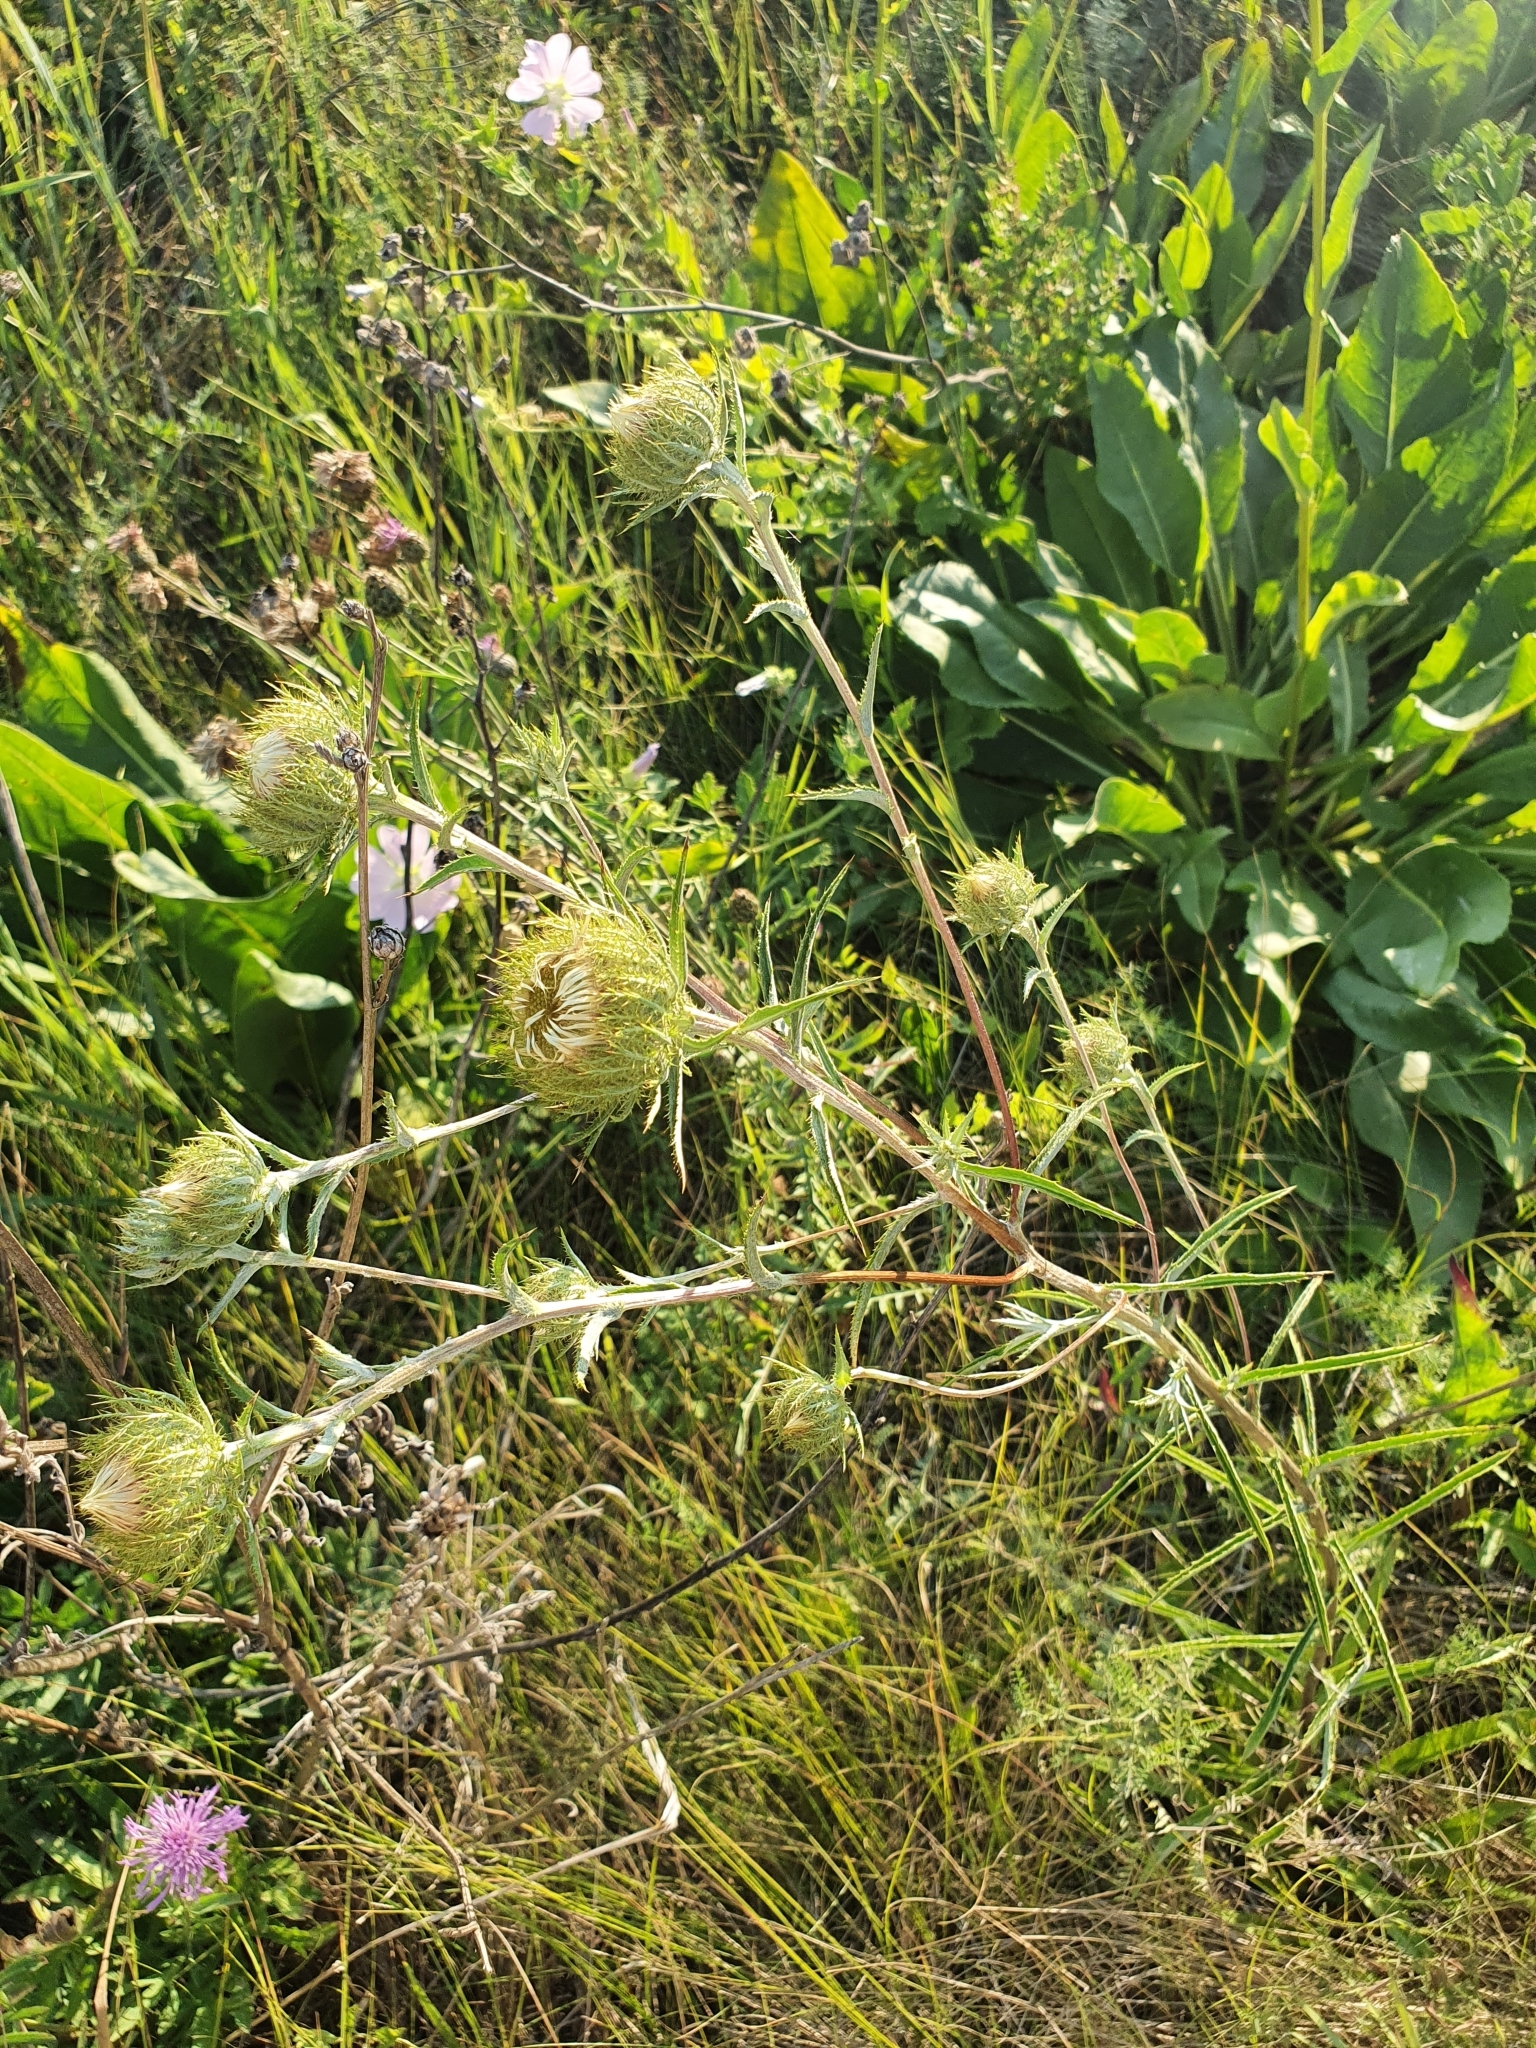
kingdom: Plantae
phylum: Tracheophyta
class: Magnoliopsida
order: Asterales
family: Asteraceae
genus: Carlina
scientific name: Carlina biebersteinii
